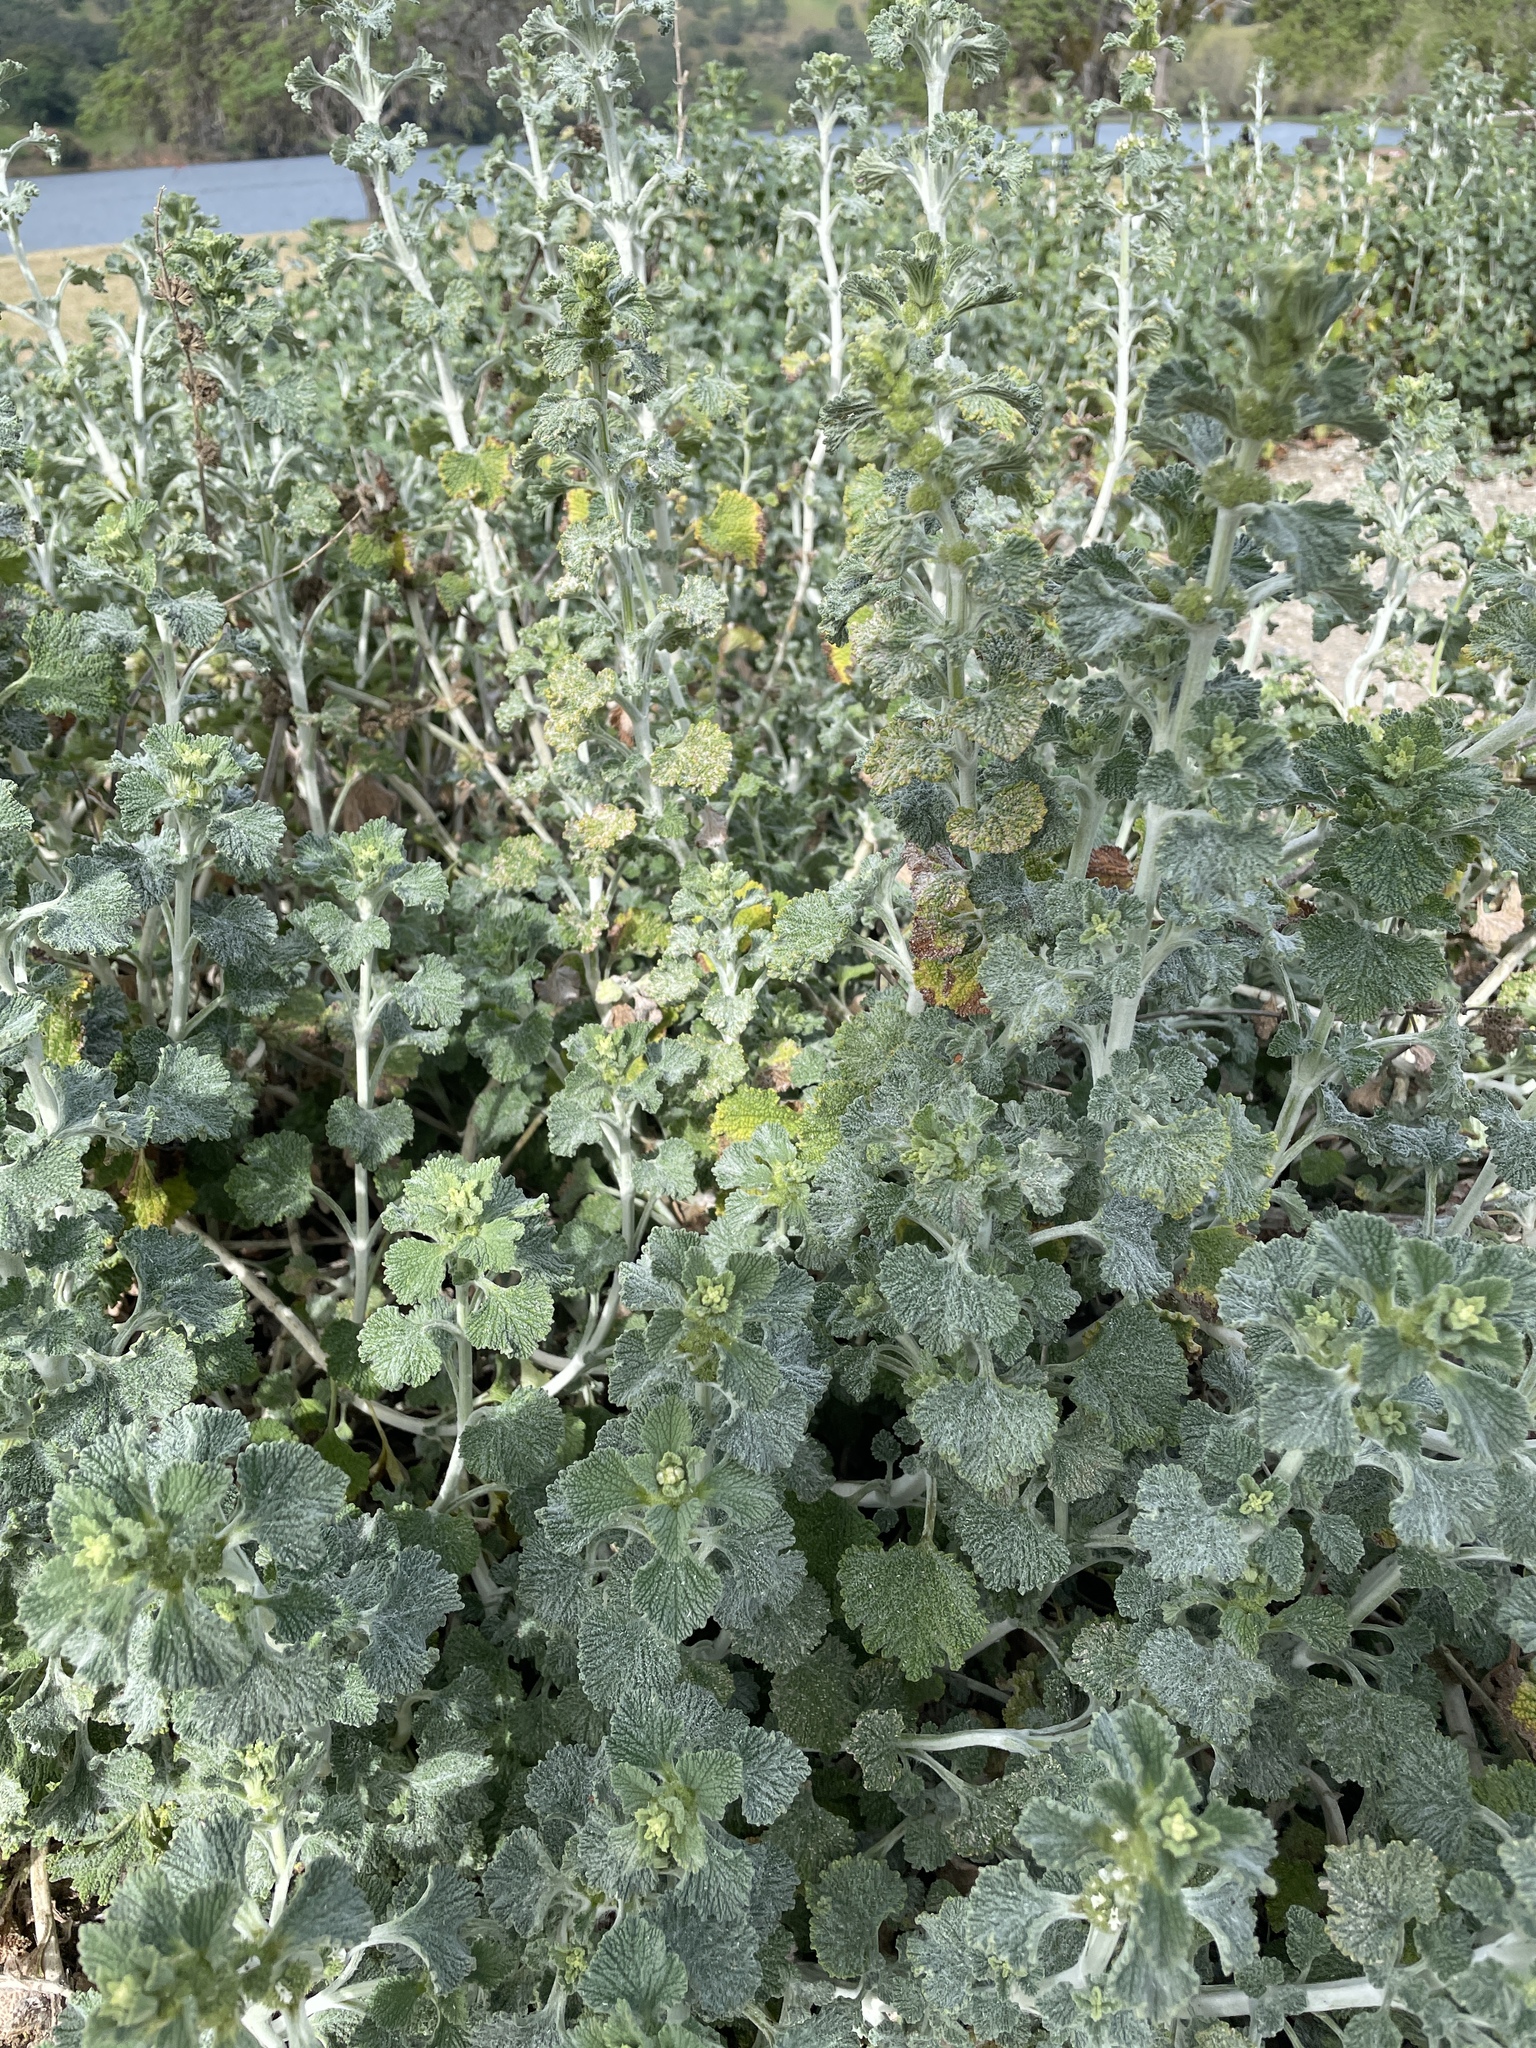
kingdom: Plantae
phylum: Tracheophyta
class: Magnoliopsida
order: Lamiales
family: Lamiaceae
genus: Marrubium
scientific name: Marrubium vulgare
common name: Horehound
